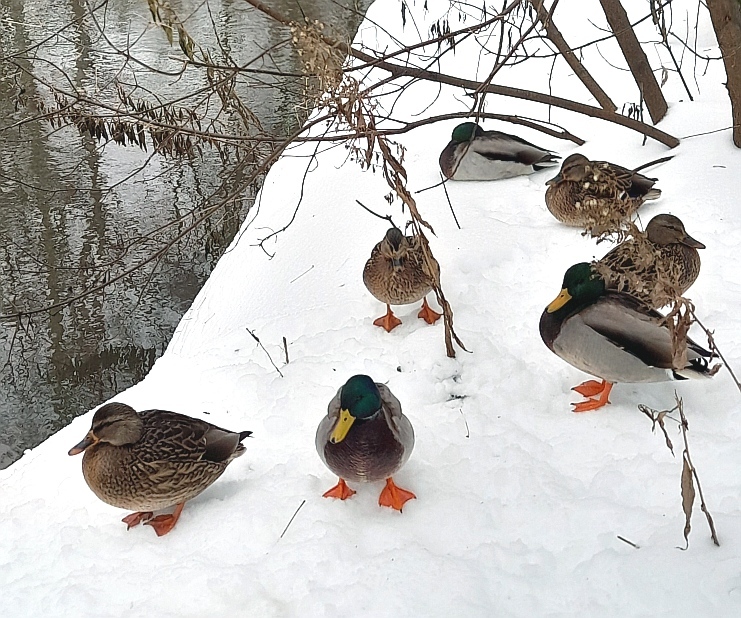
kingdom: Animalia
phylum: Chordata
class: Aves
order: Anseriformes
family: Anatidae
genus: Anas
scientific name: Anas platyrhynchos
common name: Mallard
